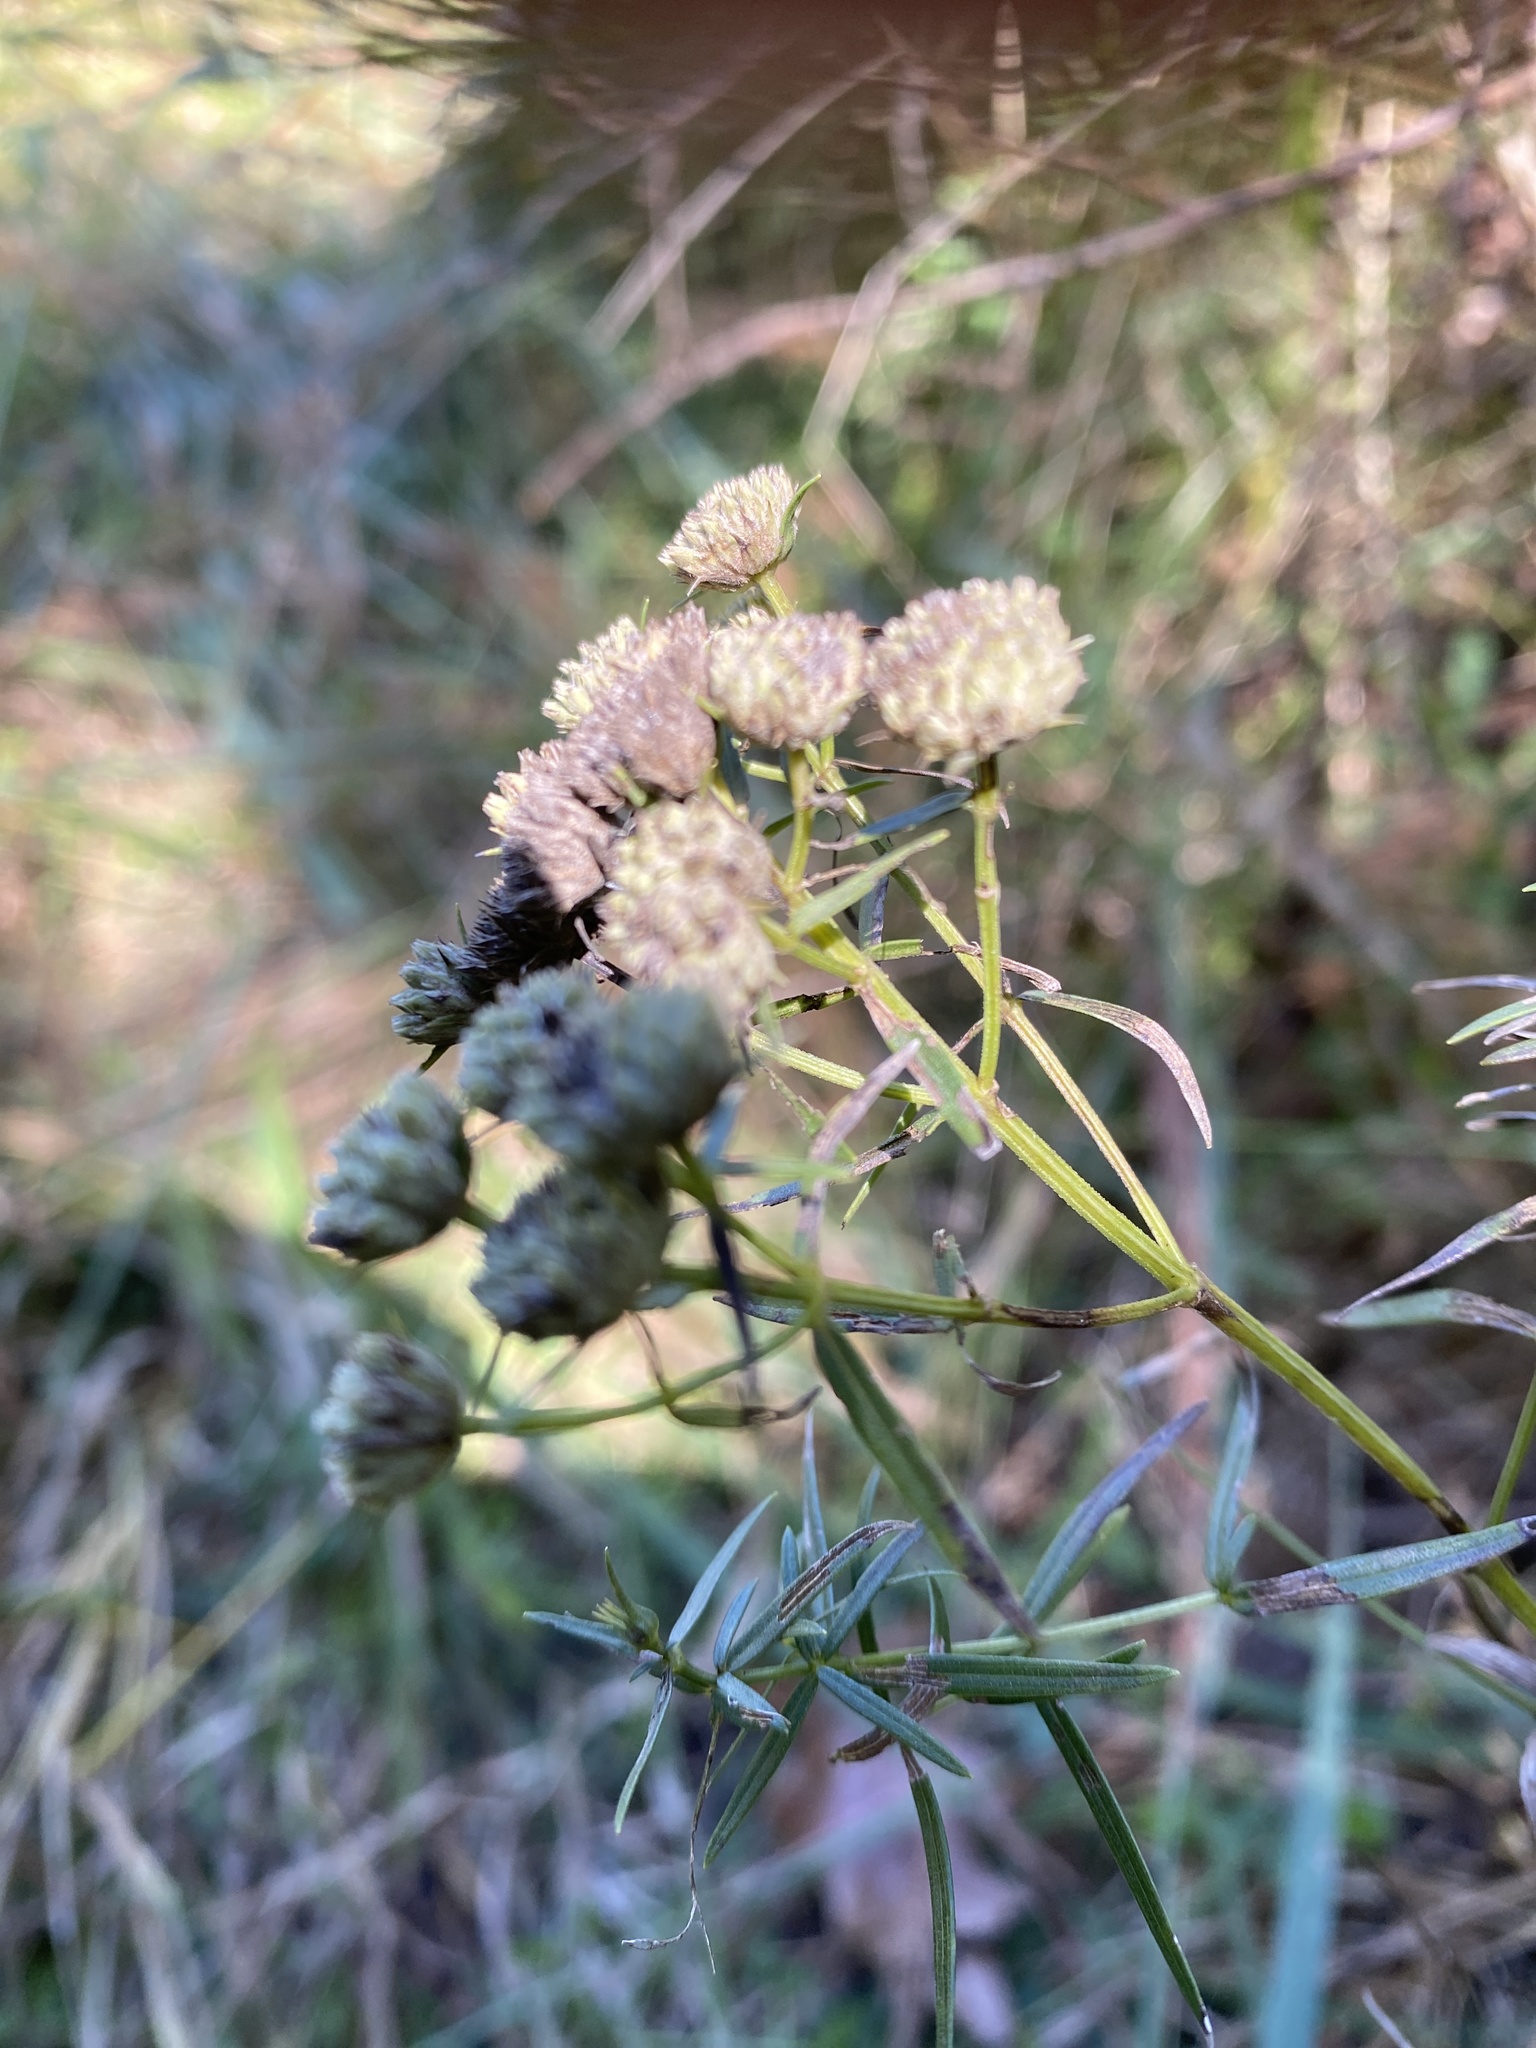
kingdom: Plantae
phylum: Tracheophyta
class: Magnoliopsida
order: Lamiales
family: Lamiaceae
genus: Pycnanthemum
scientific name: Pycnanthemum tenuifolium
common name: Narrow-leaf mountain-mint
